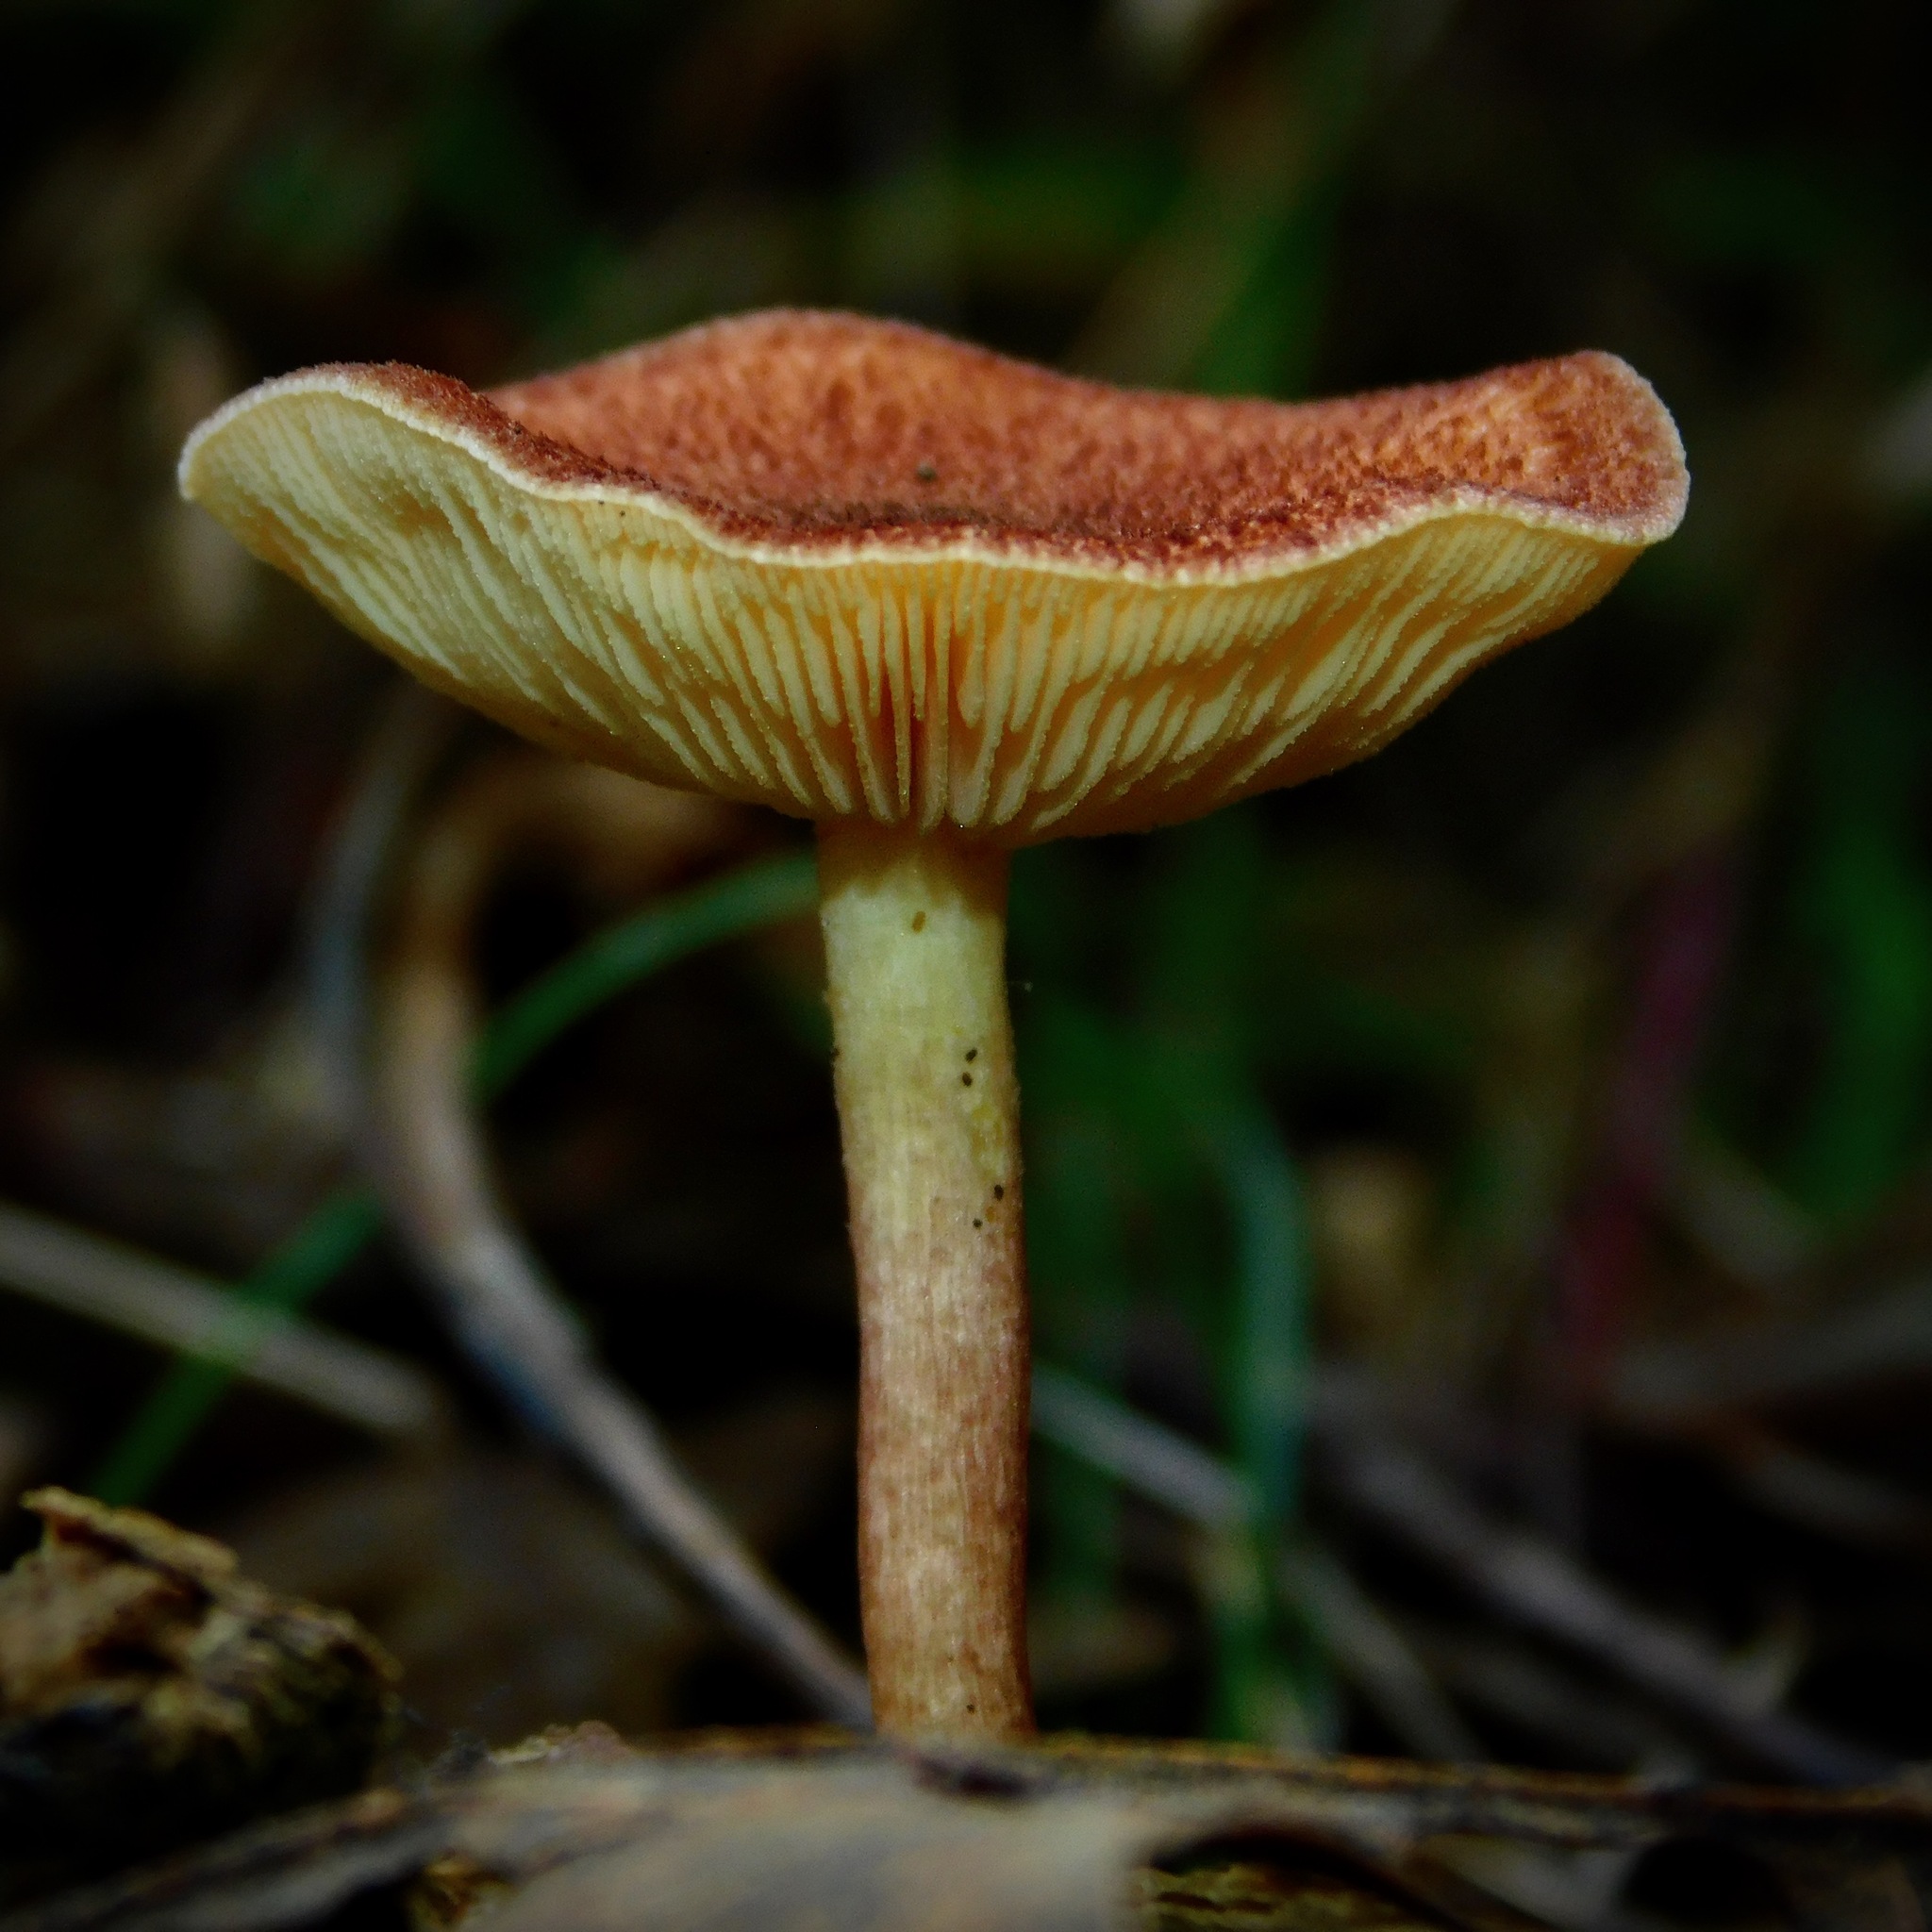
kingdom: Fungi
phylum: Basidiomycota
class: Agaricomycetes
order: Agaricales
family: Tricholomataceae
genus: Tricholomopsis
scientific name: Tricholomopsis rutilans
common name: Plums and custard
